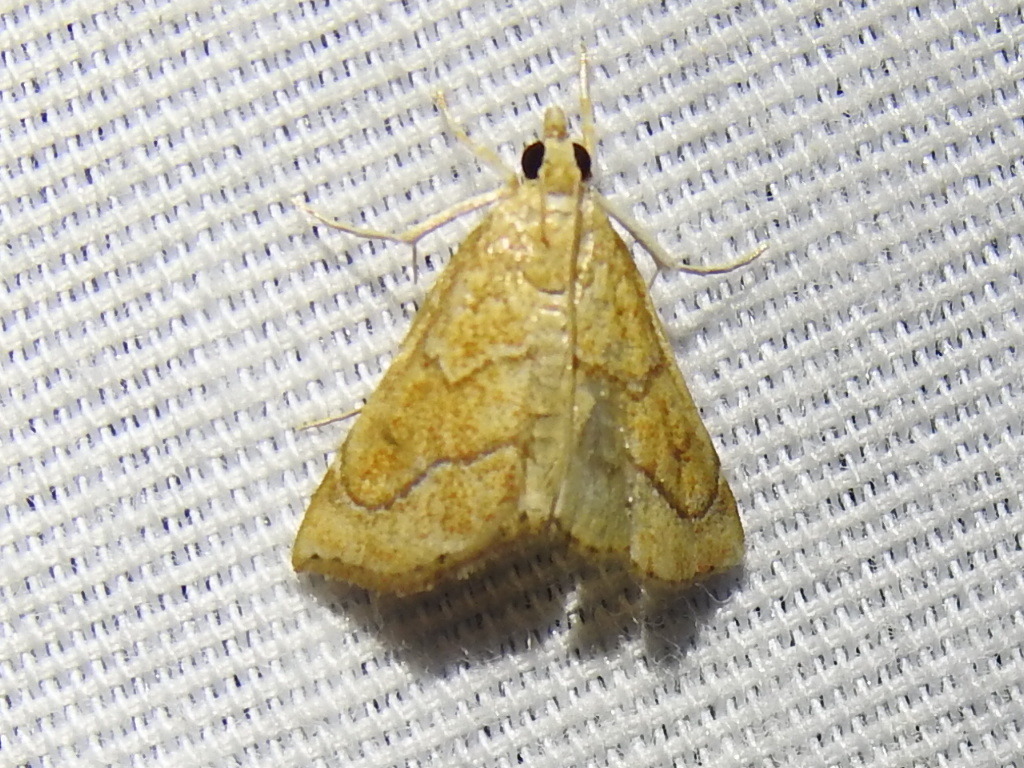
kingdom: Animalia
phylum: Arthropoda
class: Insecta
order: Lepidoptera
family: Crambidae
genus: Aethiophysa
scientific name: Aethiophysa dualis
